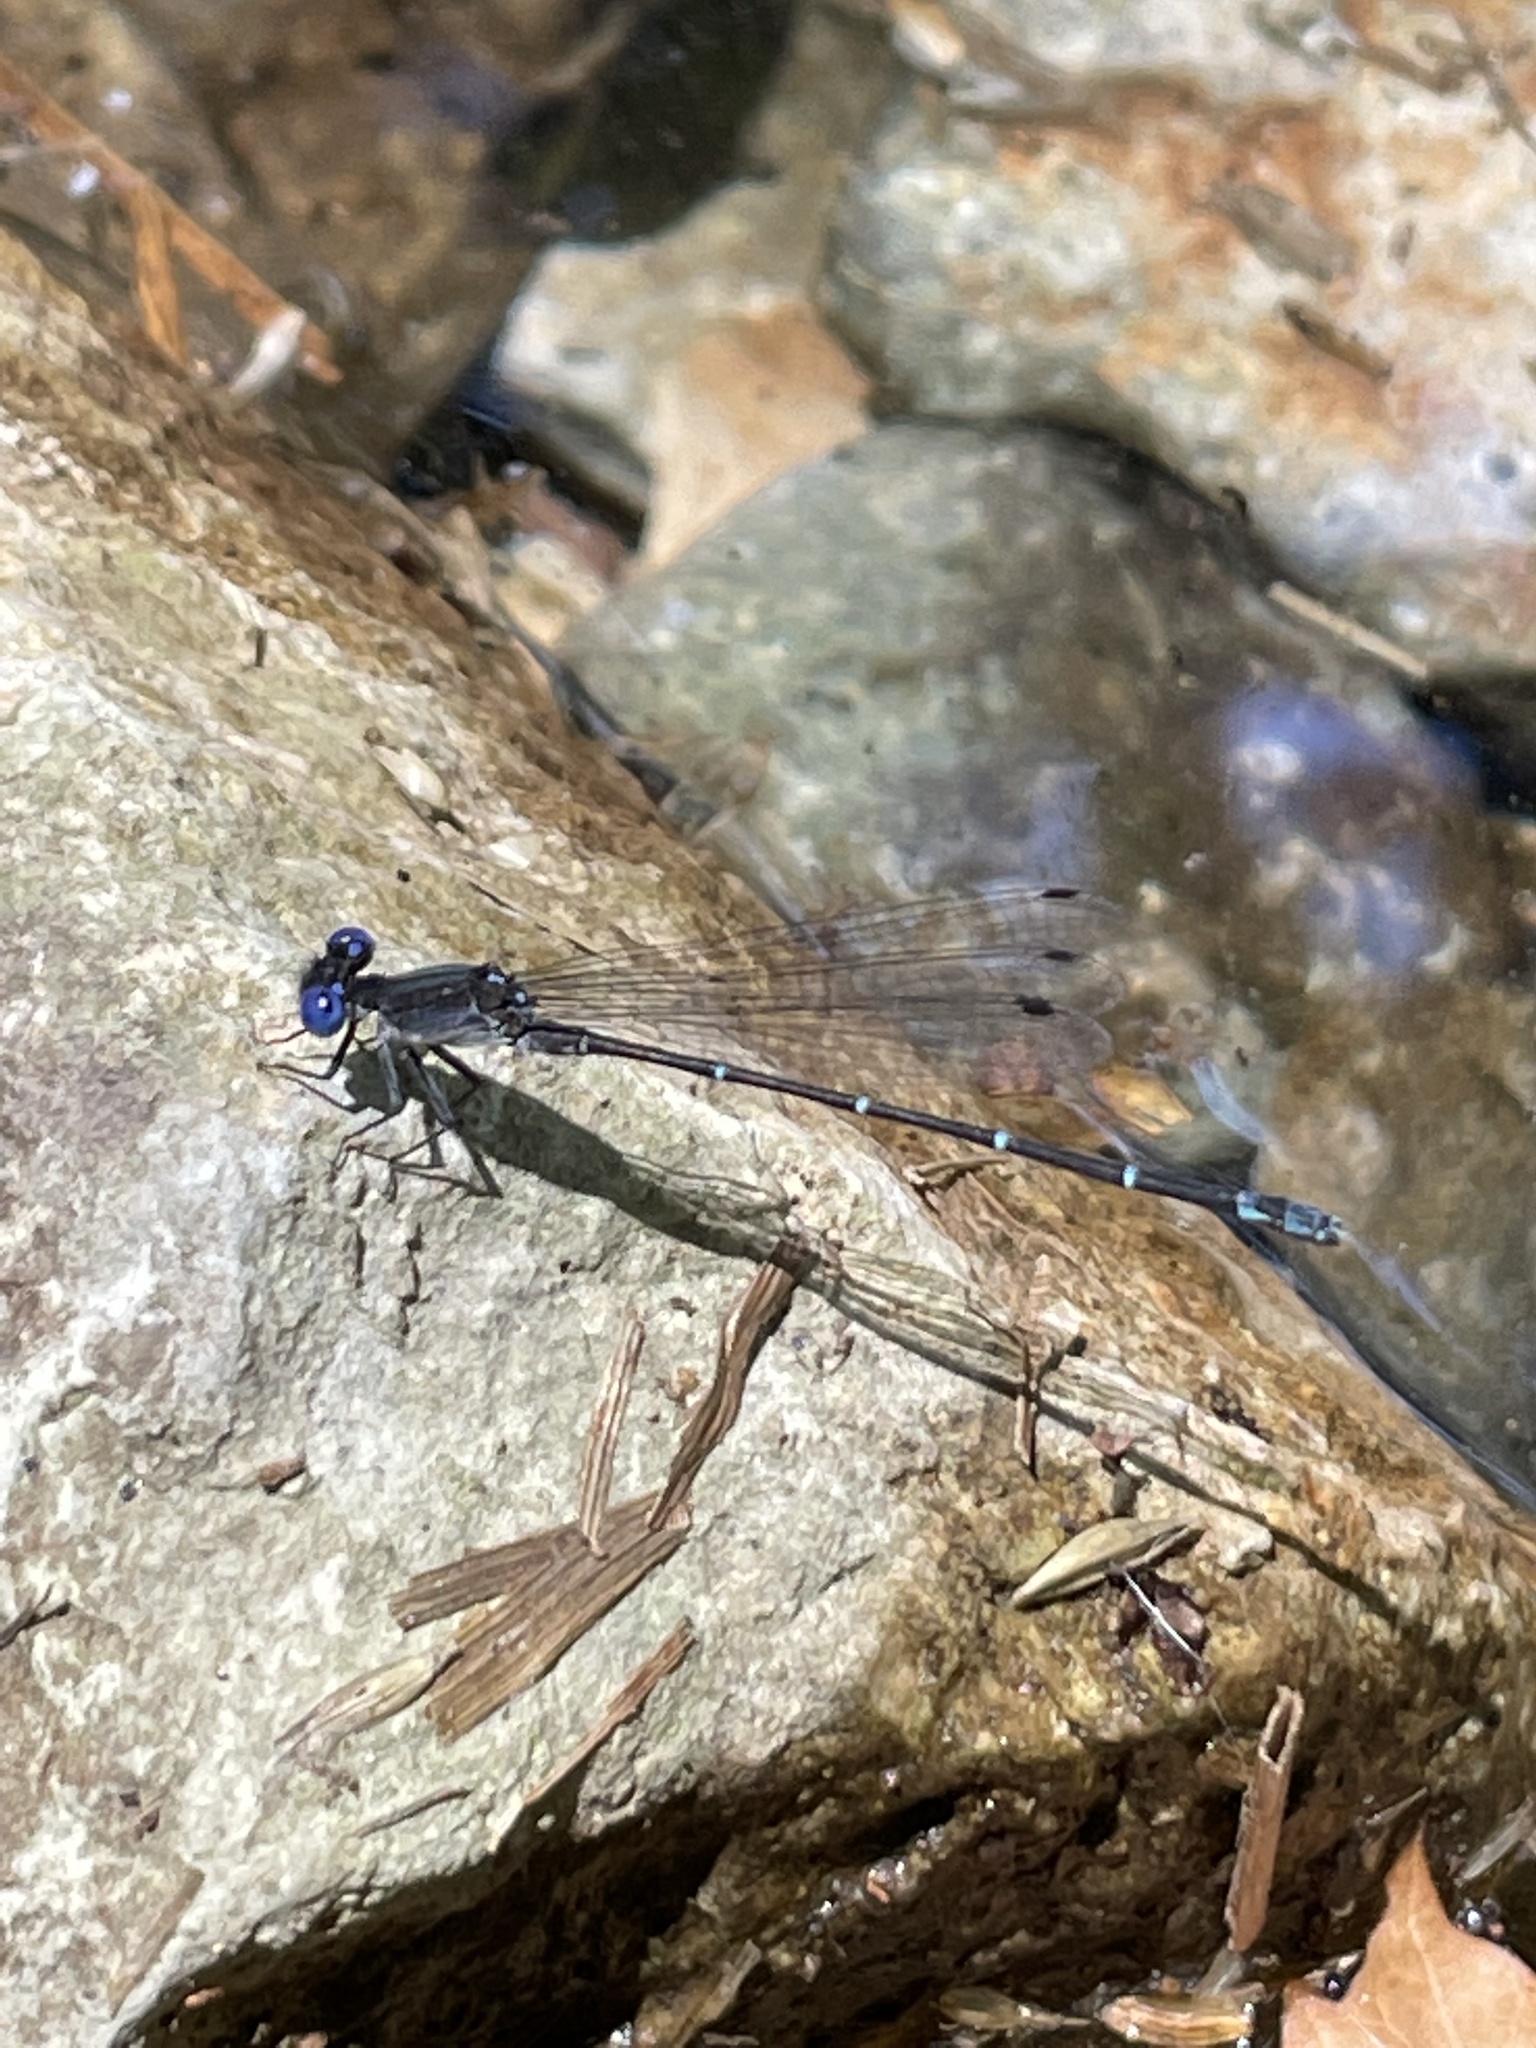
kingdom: Animalia
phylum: Arthropoda
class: Insecta
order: Odonata
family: Coenagrionidae
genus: Argia
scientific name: Argia translata
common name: Dusky dancer
